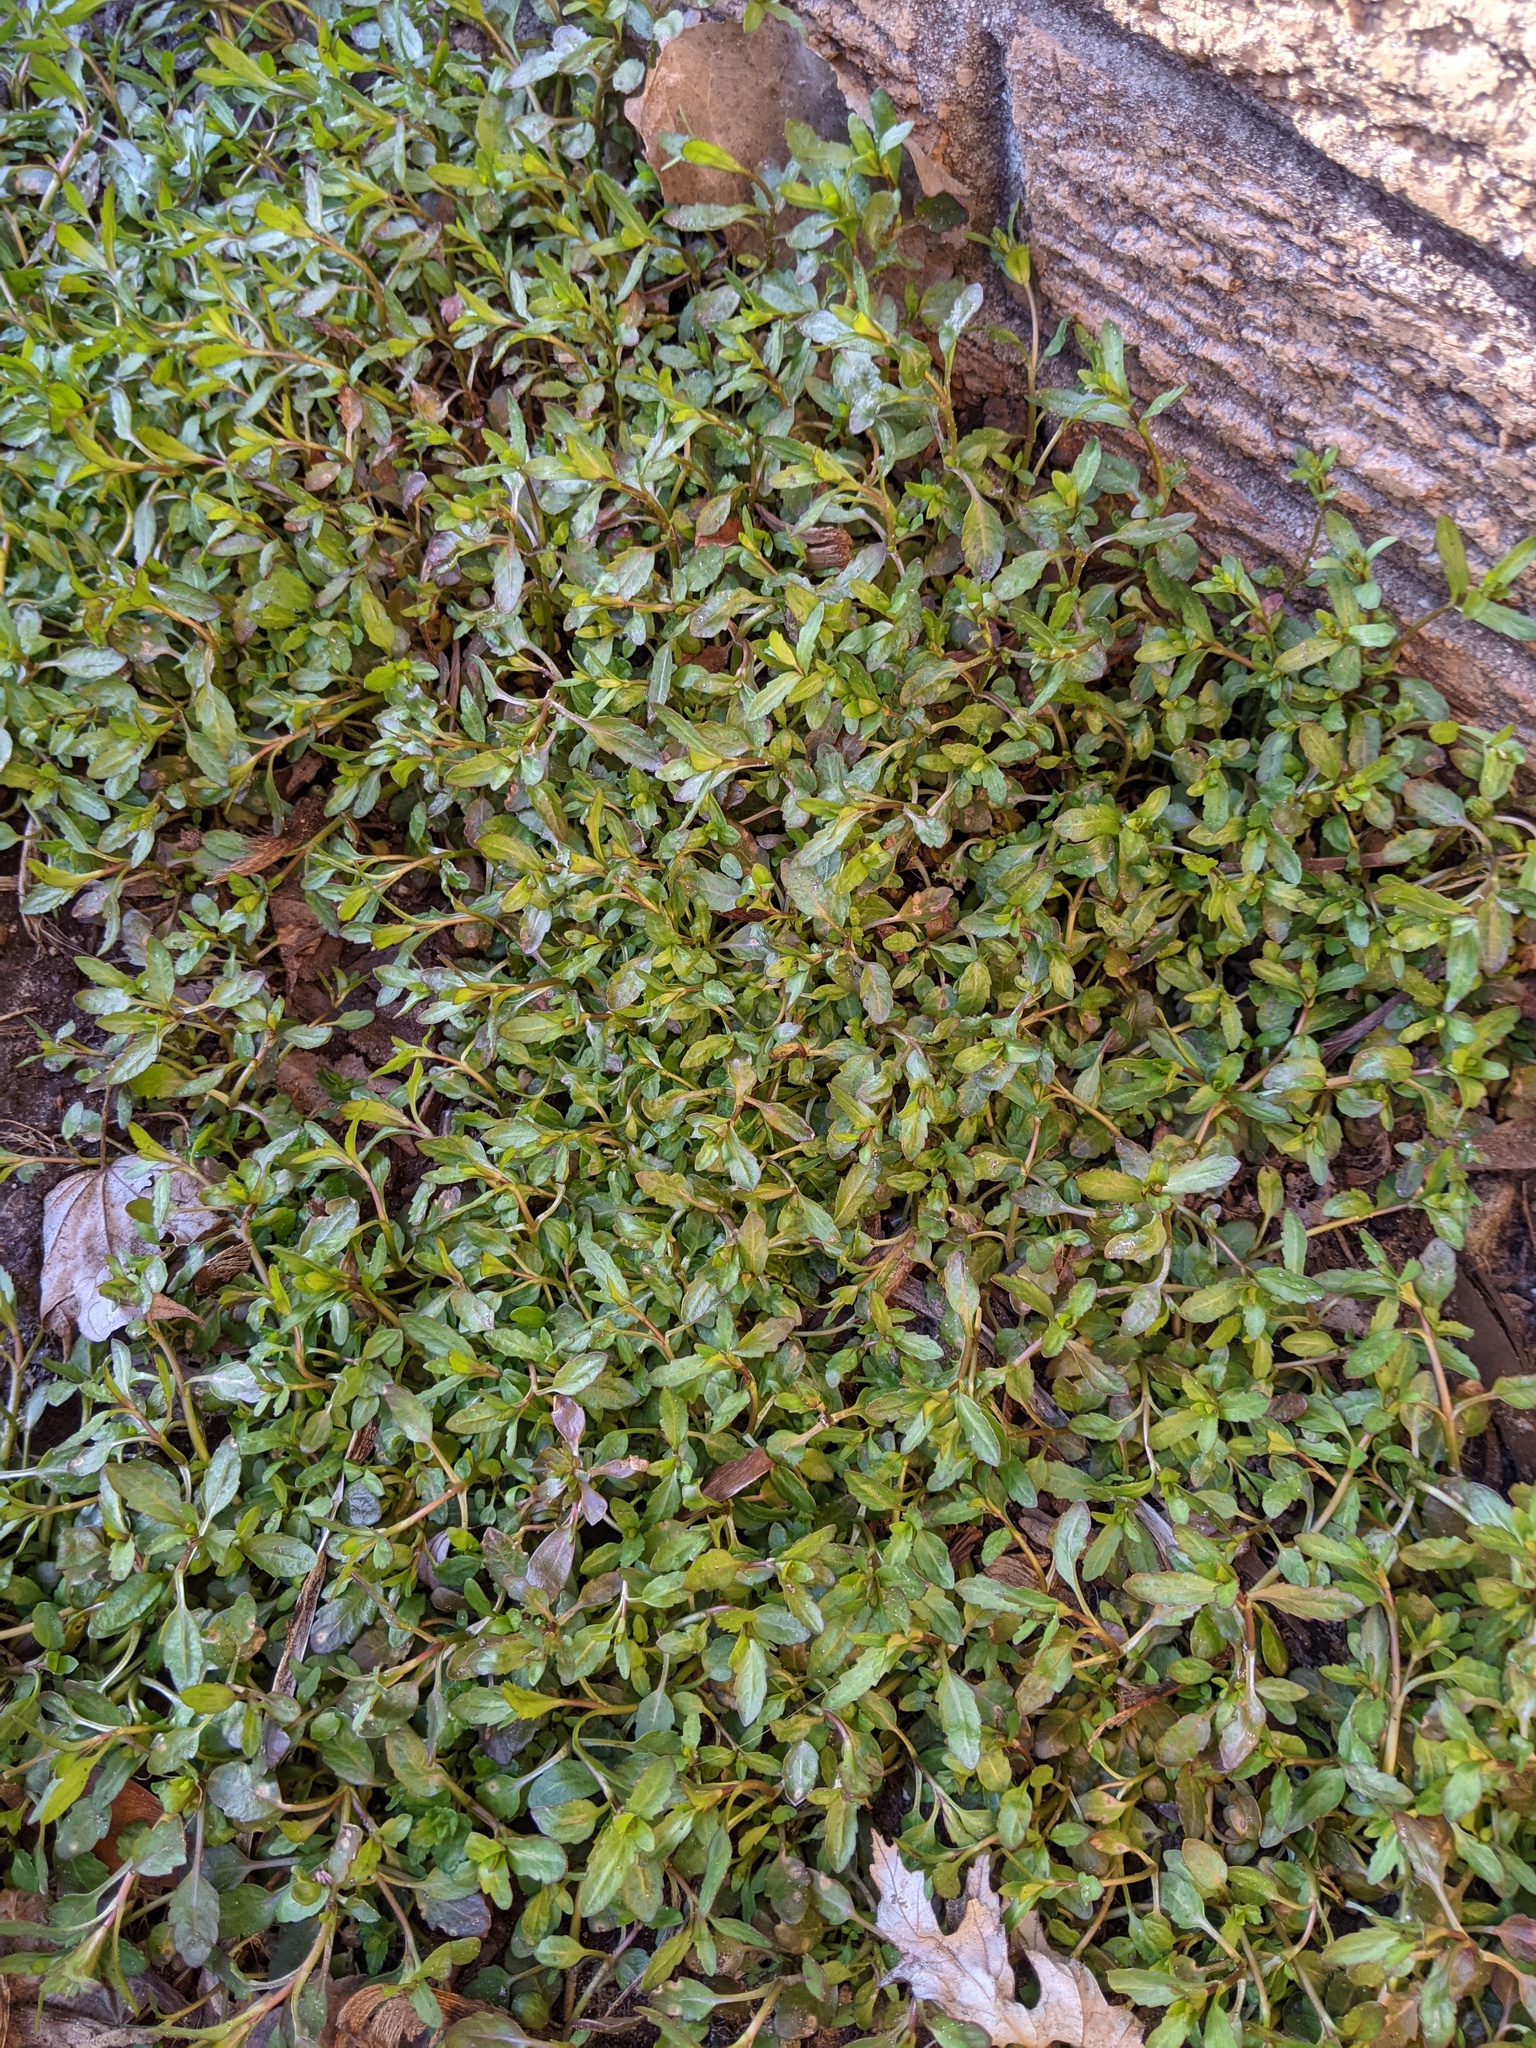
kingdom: Plantae
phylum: Tracheophyta
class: Magnoliopsida
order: Lamiales
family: Plantaginaceae
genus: Veronica
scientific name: Veronica peregrina
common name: Neckweed
